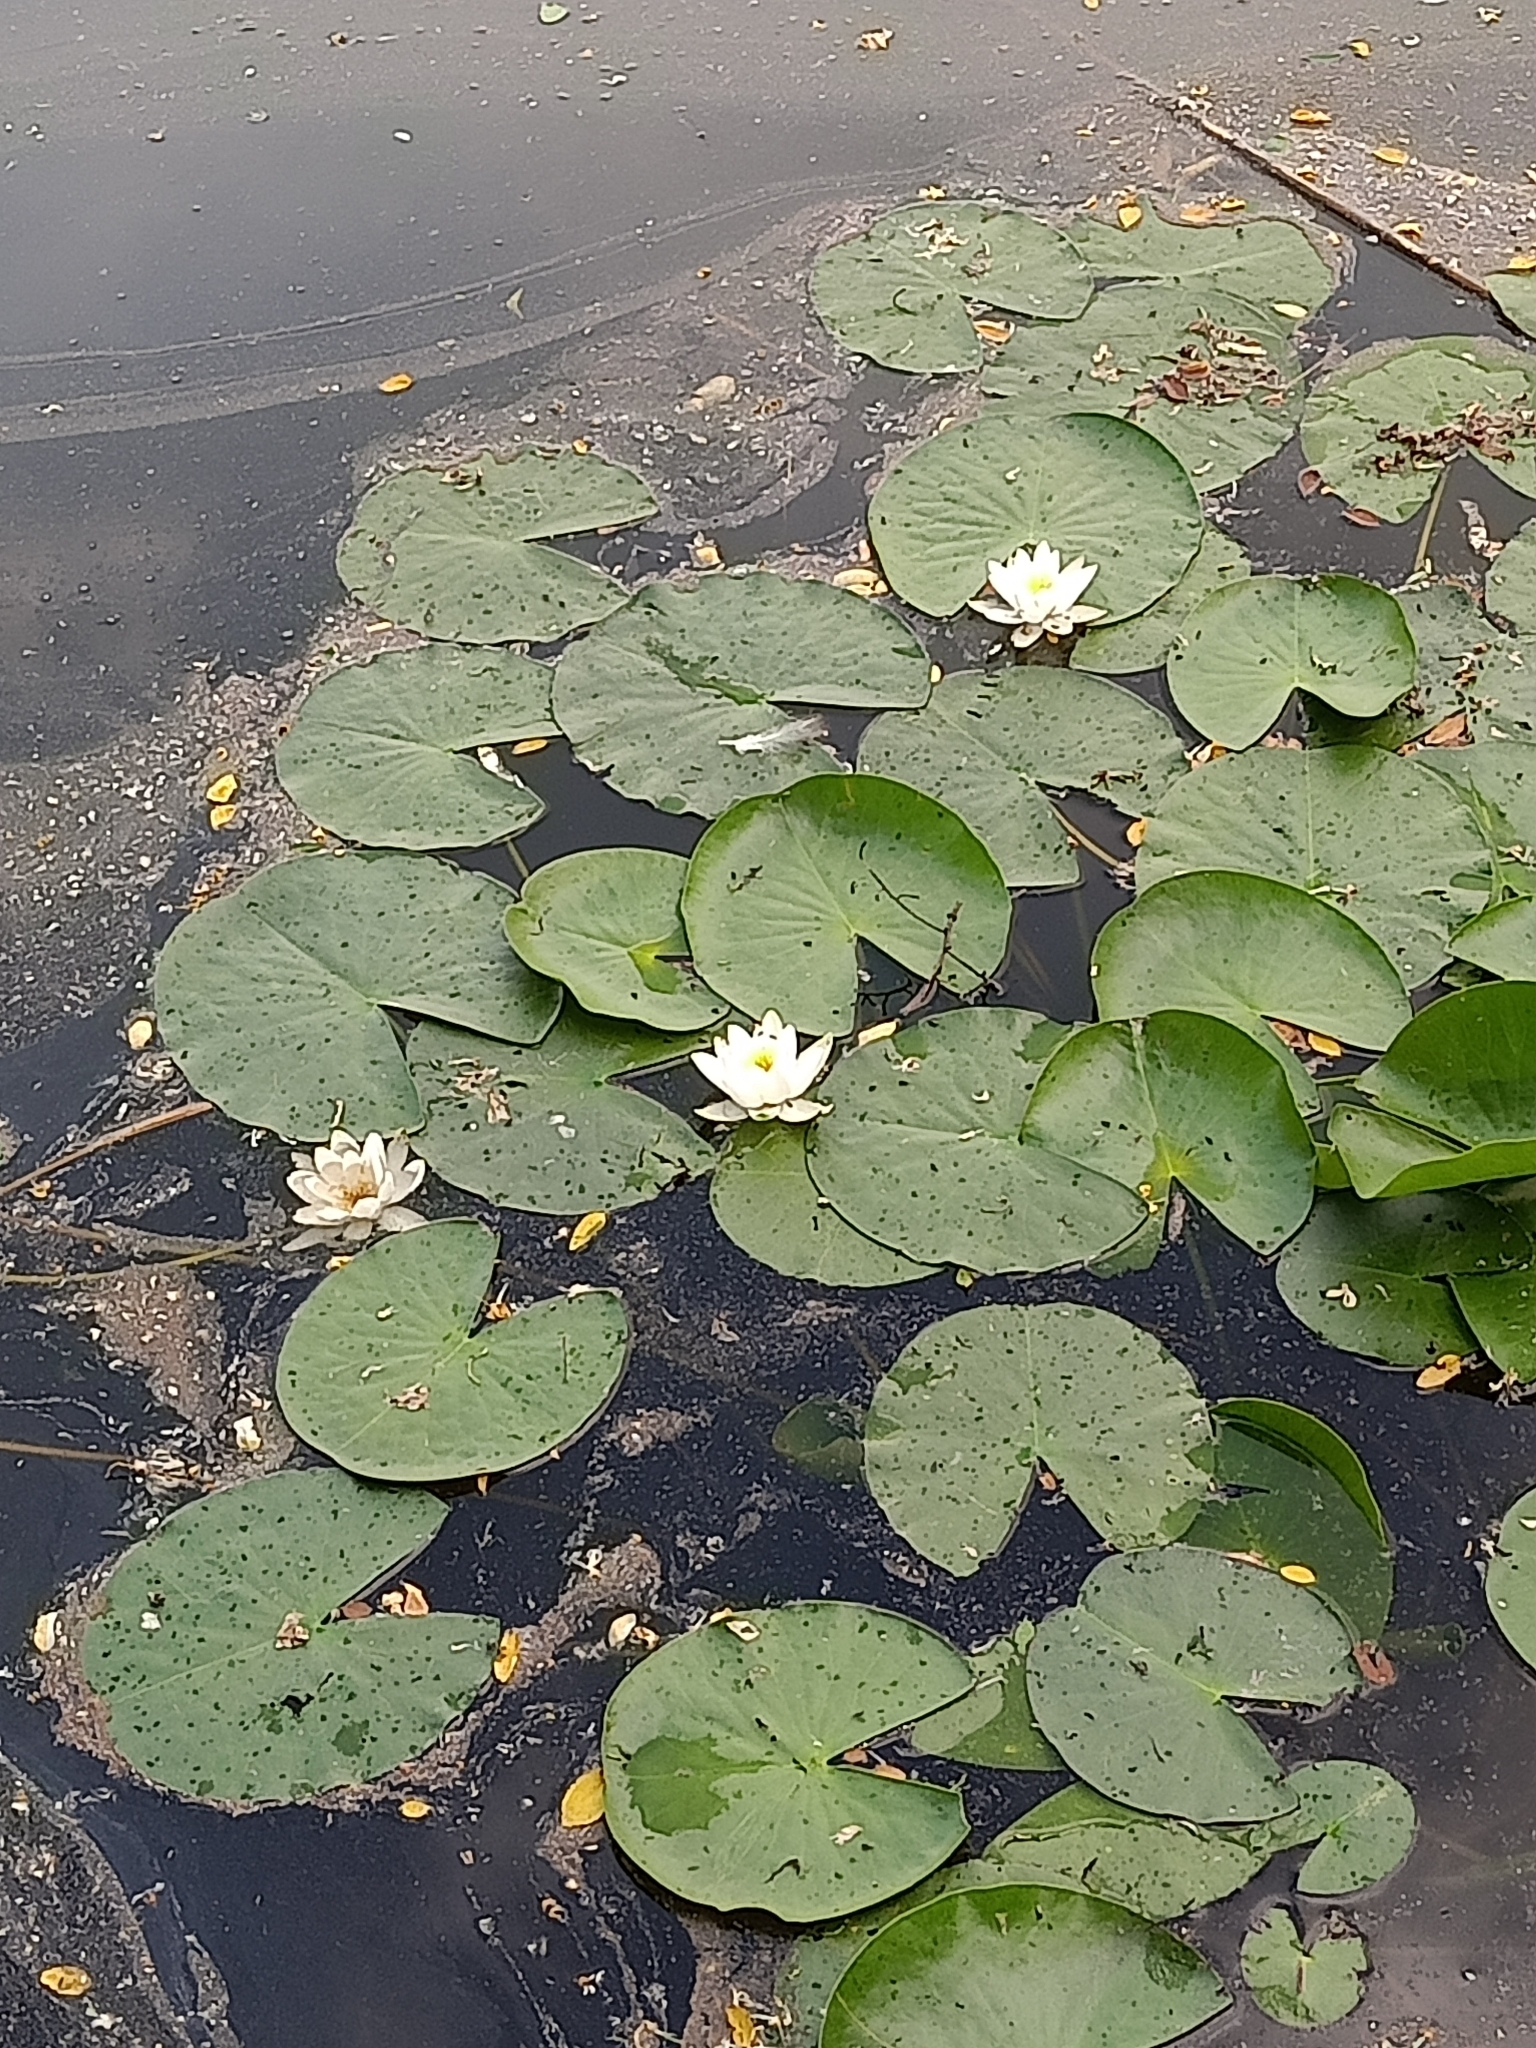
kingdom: Plantae
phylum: Tracheophyta
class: Magnoliopsida
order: Nymphaeales
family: Nymphaeaceae
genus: Nymphaea
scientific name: Nymphaea alba
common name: White water-lily
